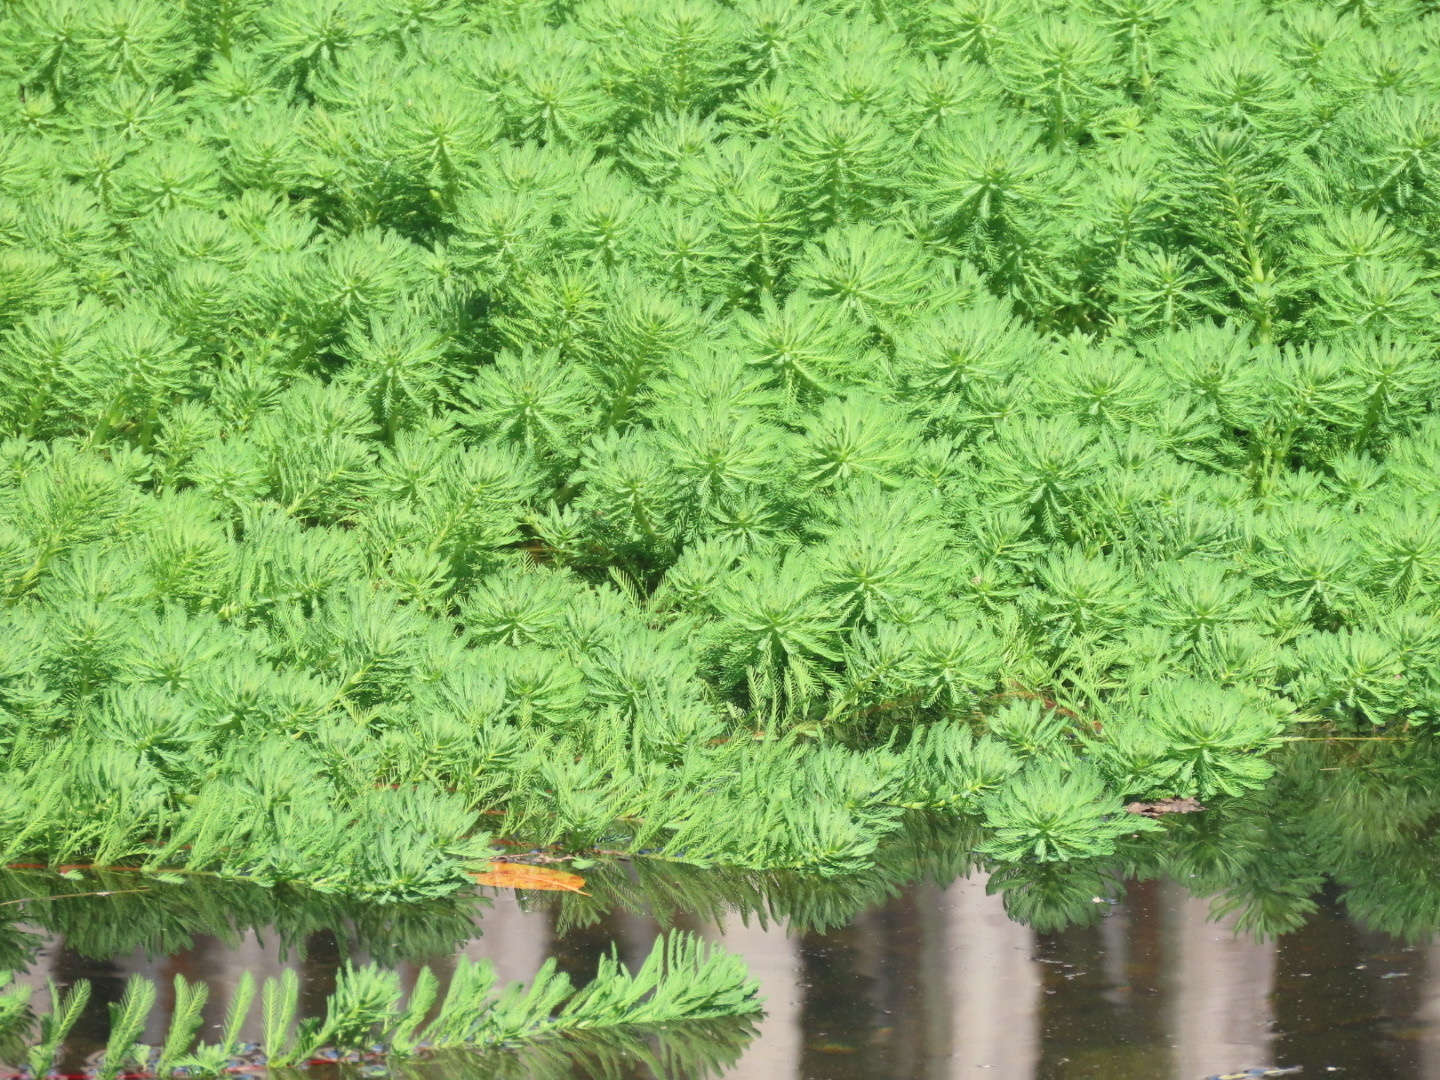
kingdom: Plantae
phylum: Tracheophyta
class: Magnoliopsida
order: Saxifragales
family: Haloragaceae
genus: Myriophyllum
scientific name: Myriophyllum aquaticum
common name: Parrot's feather
